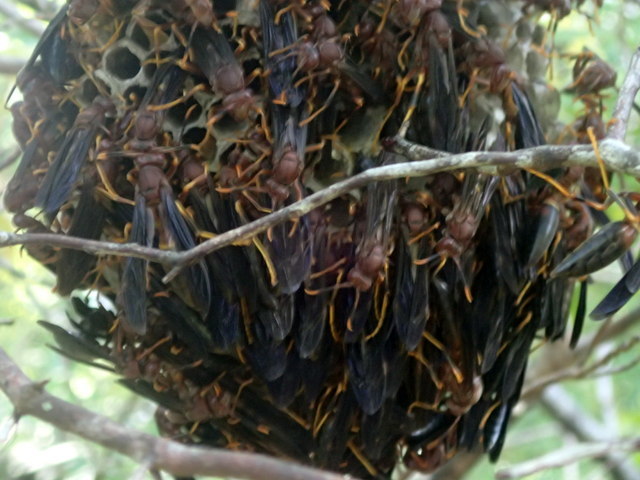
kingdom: Animalia
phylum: Arthropoda
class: Insecta
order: Hymenoptera
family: Eumenidae
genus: Polistes
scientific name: Polistes annularis
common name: Ringed paper wasp
